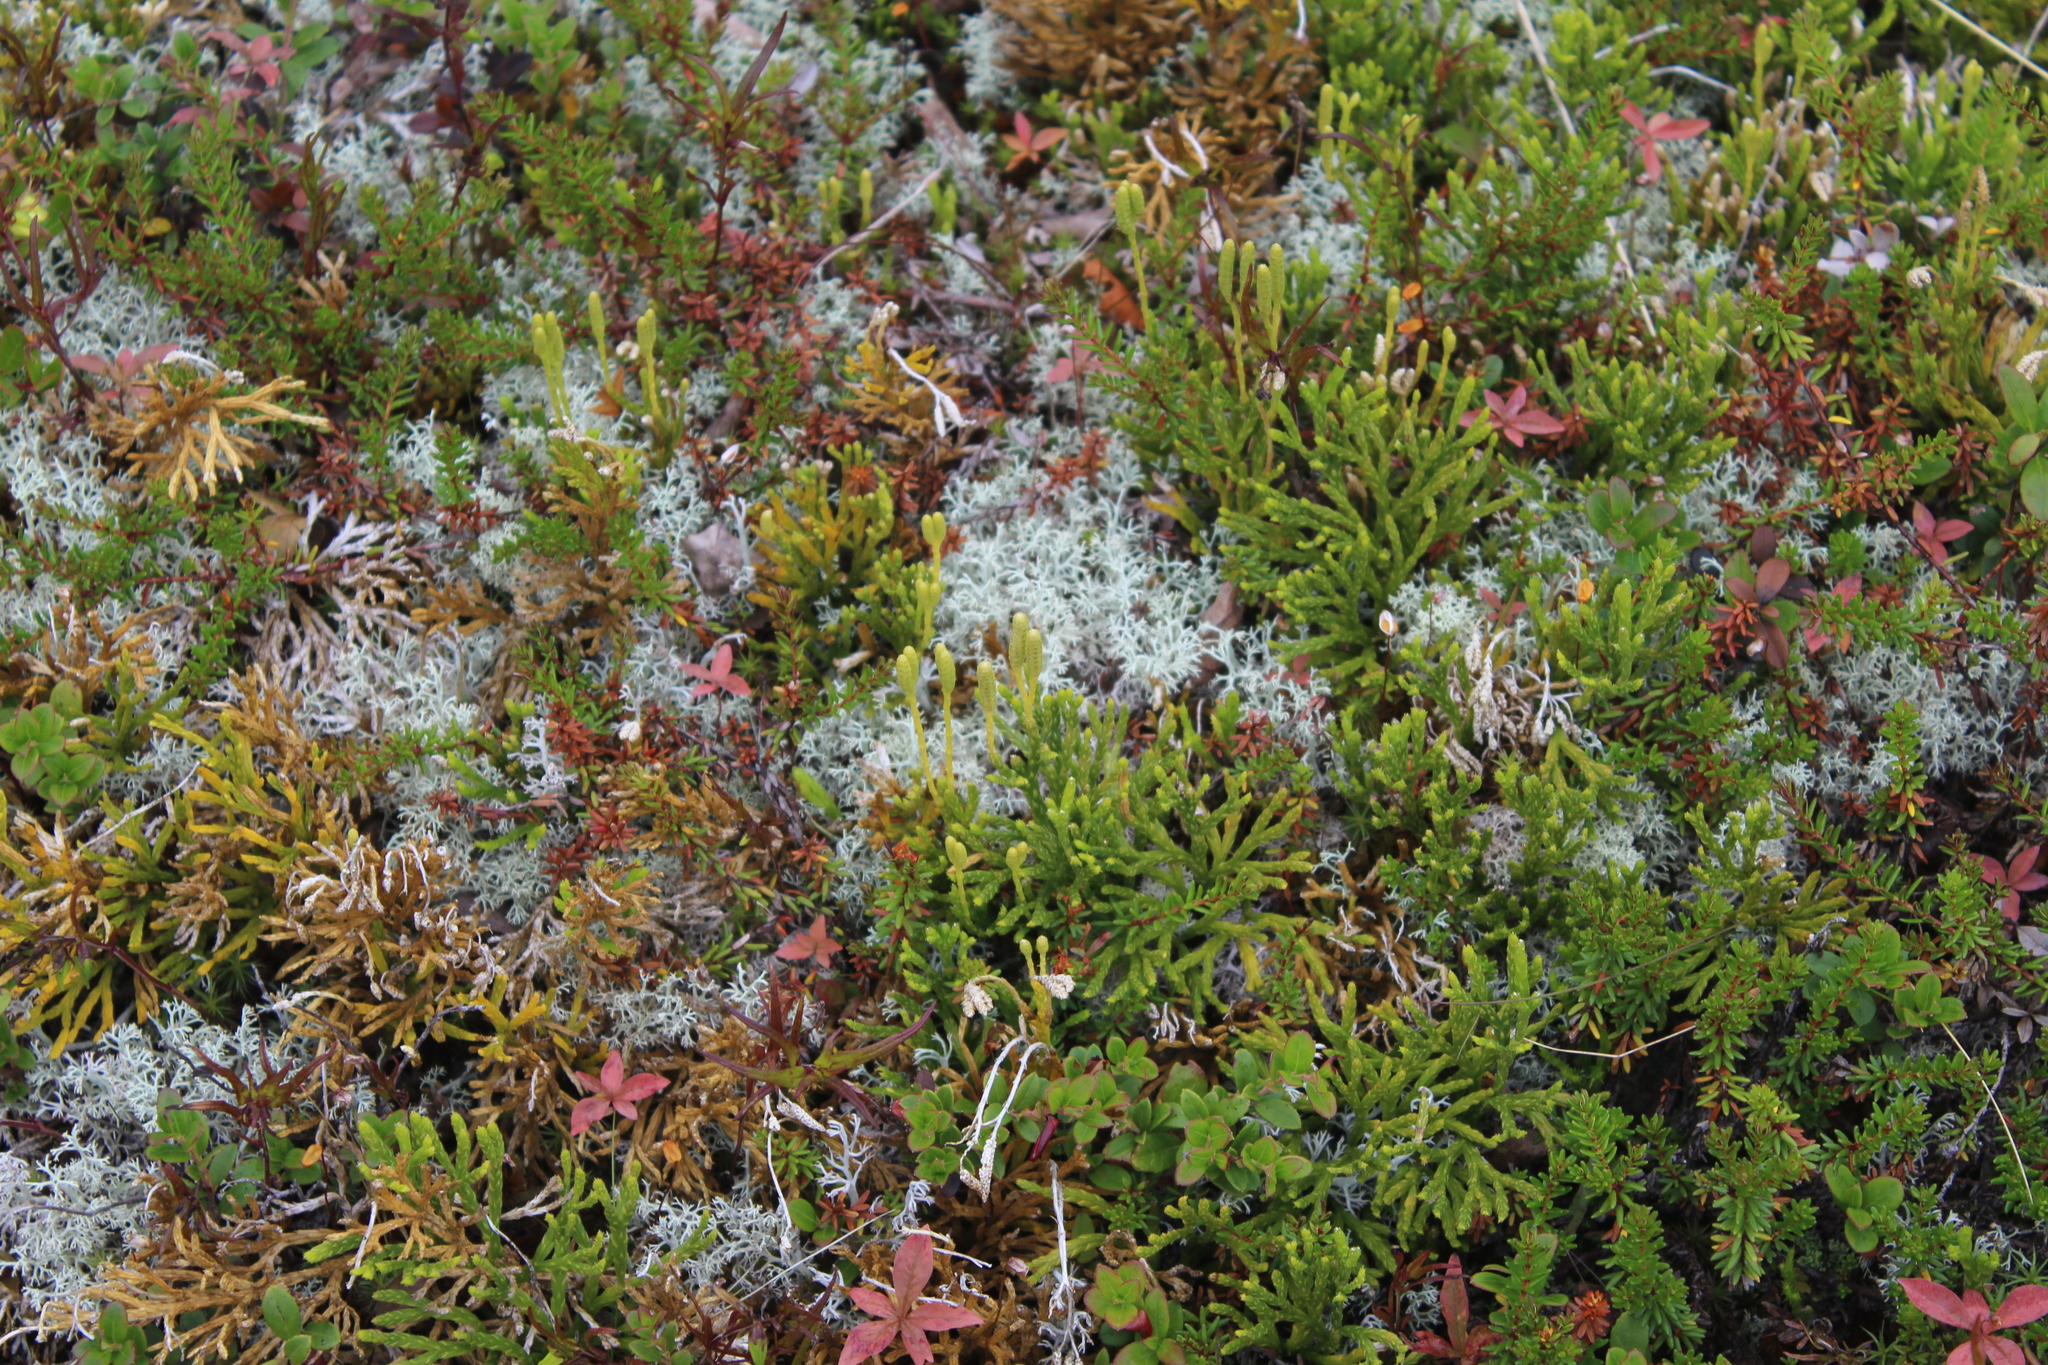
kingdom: Plantae
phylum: Tracheophyta
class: Lycopodiopsida
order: Lycopodiales
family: Lycopodiaceae
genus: Diphasiastrum
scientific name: Diphasiastrum complanatum
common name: Northern running-pine
